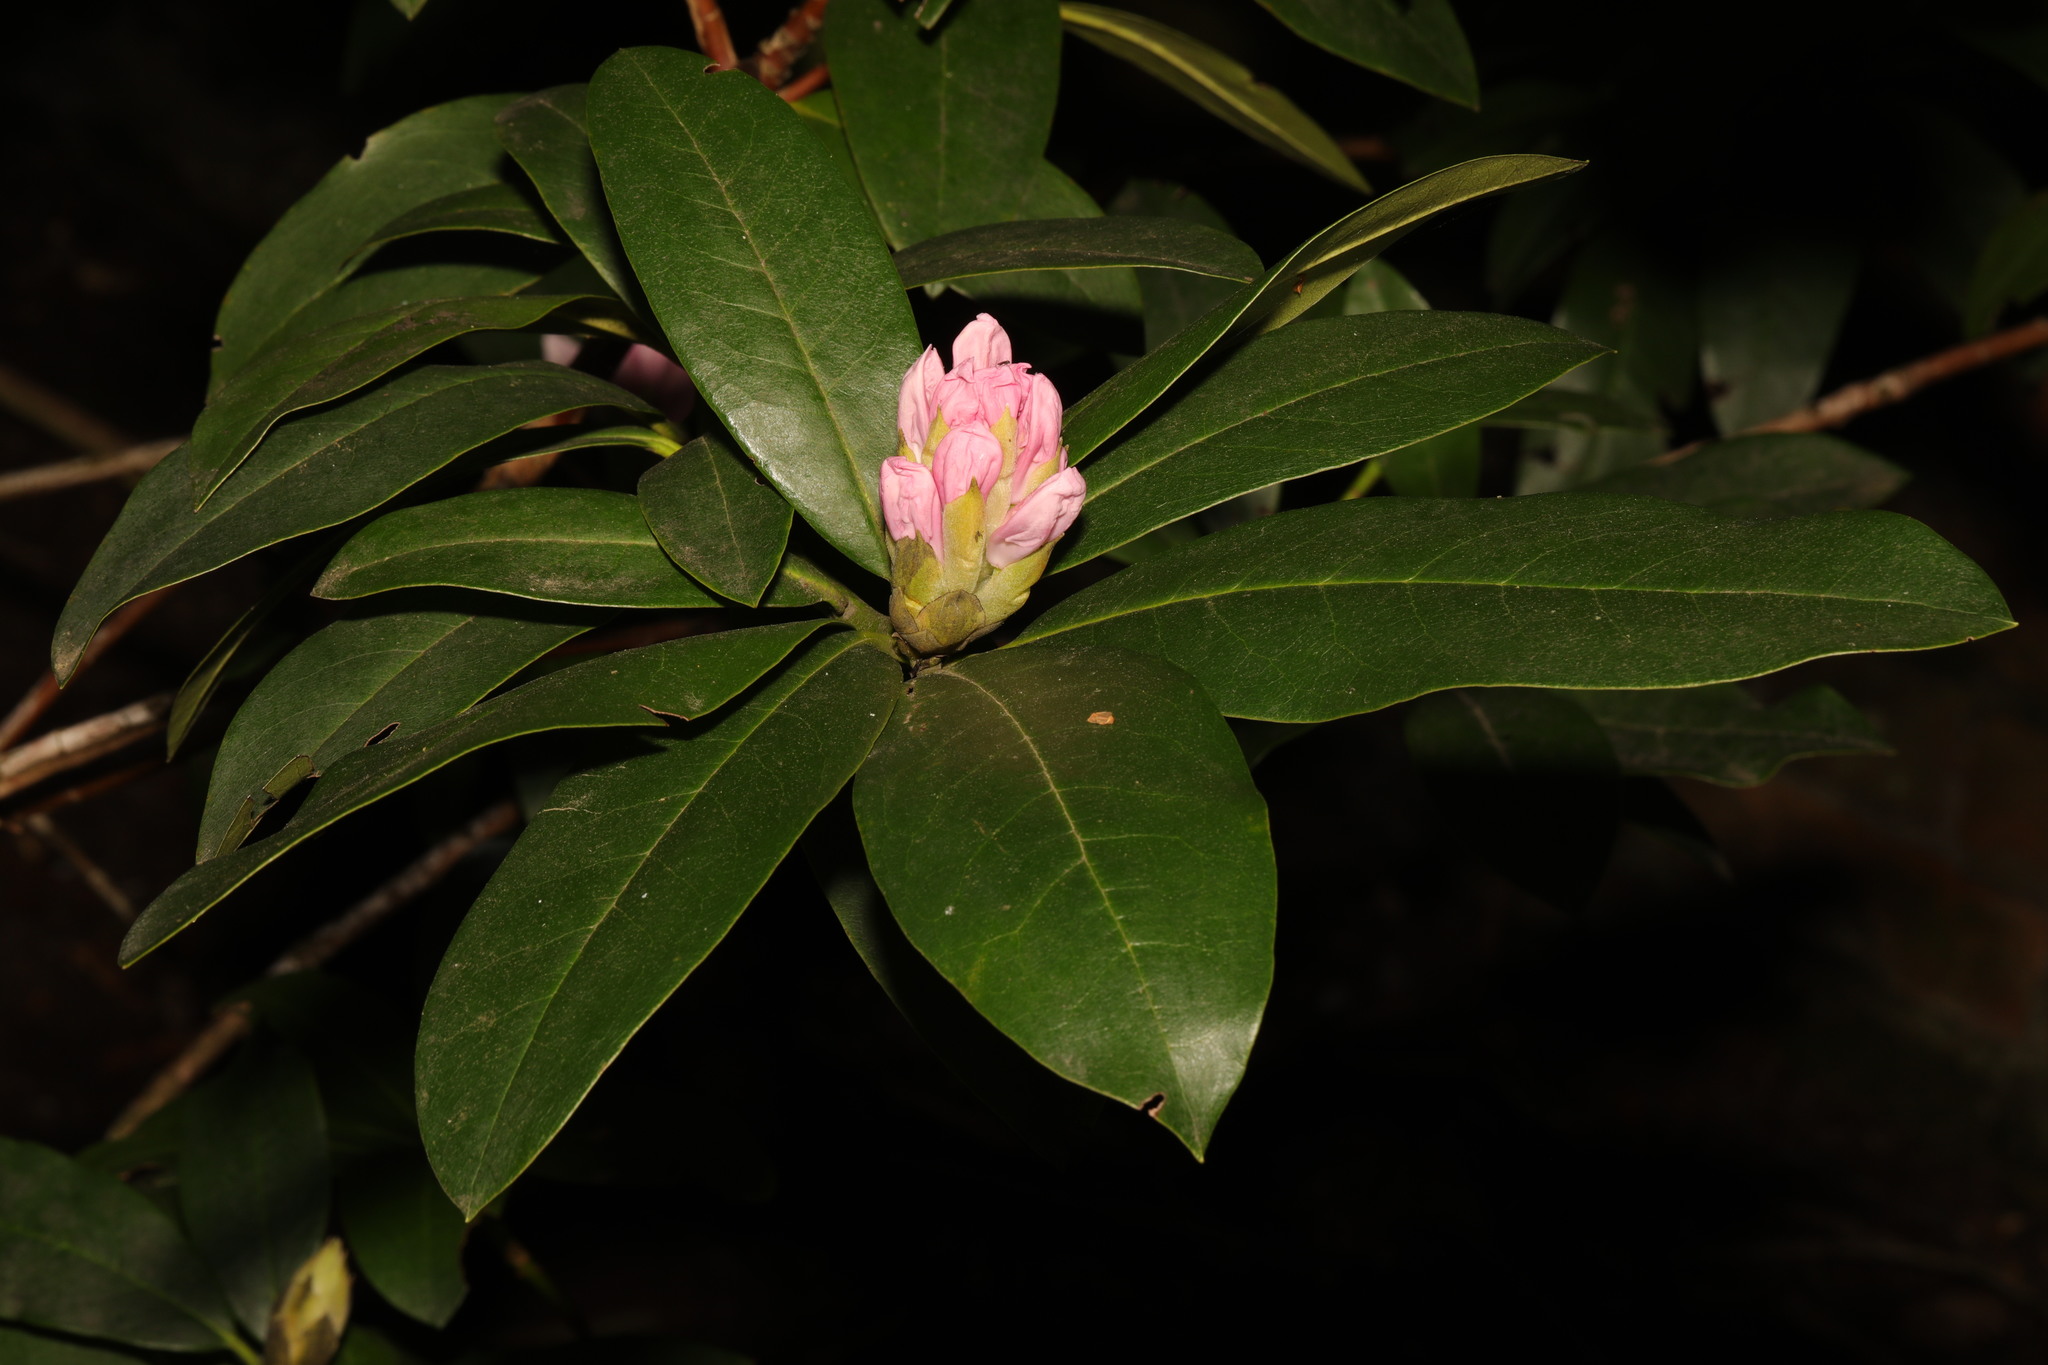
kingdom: Plantae
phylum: Tracheophyta
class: Magnoliopsida
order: Ericales
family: Ericaceae
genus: Rhododendron
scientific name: Rhododendron ponticum
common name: Rhododendron
